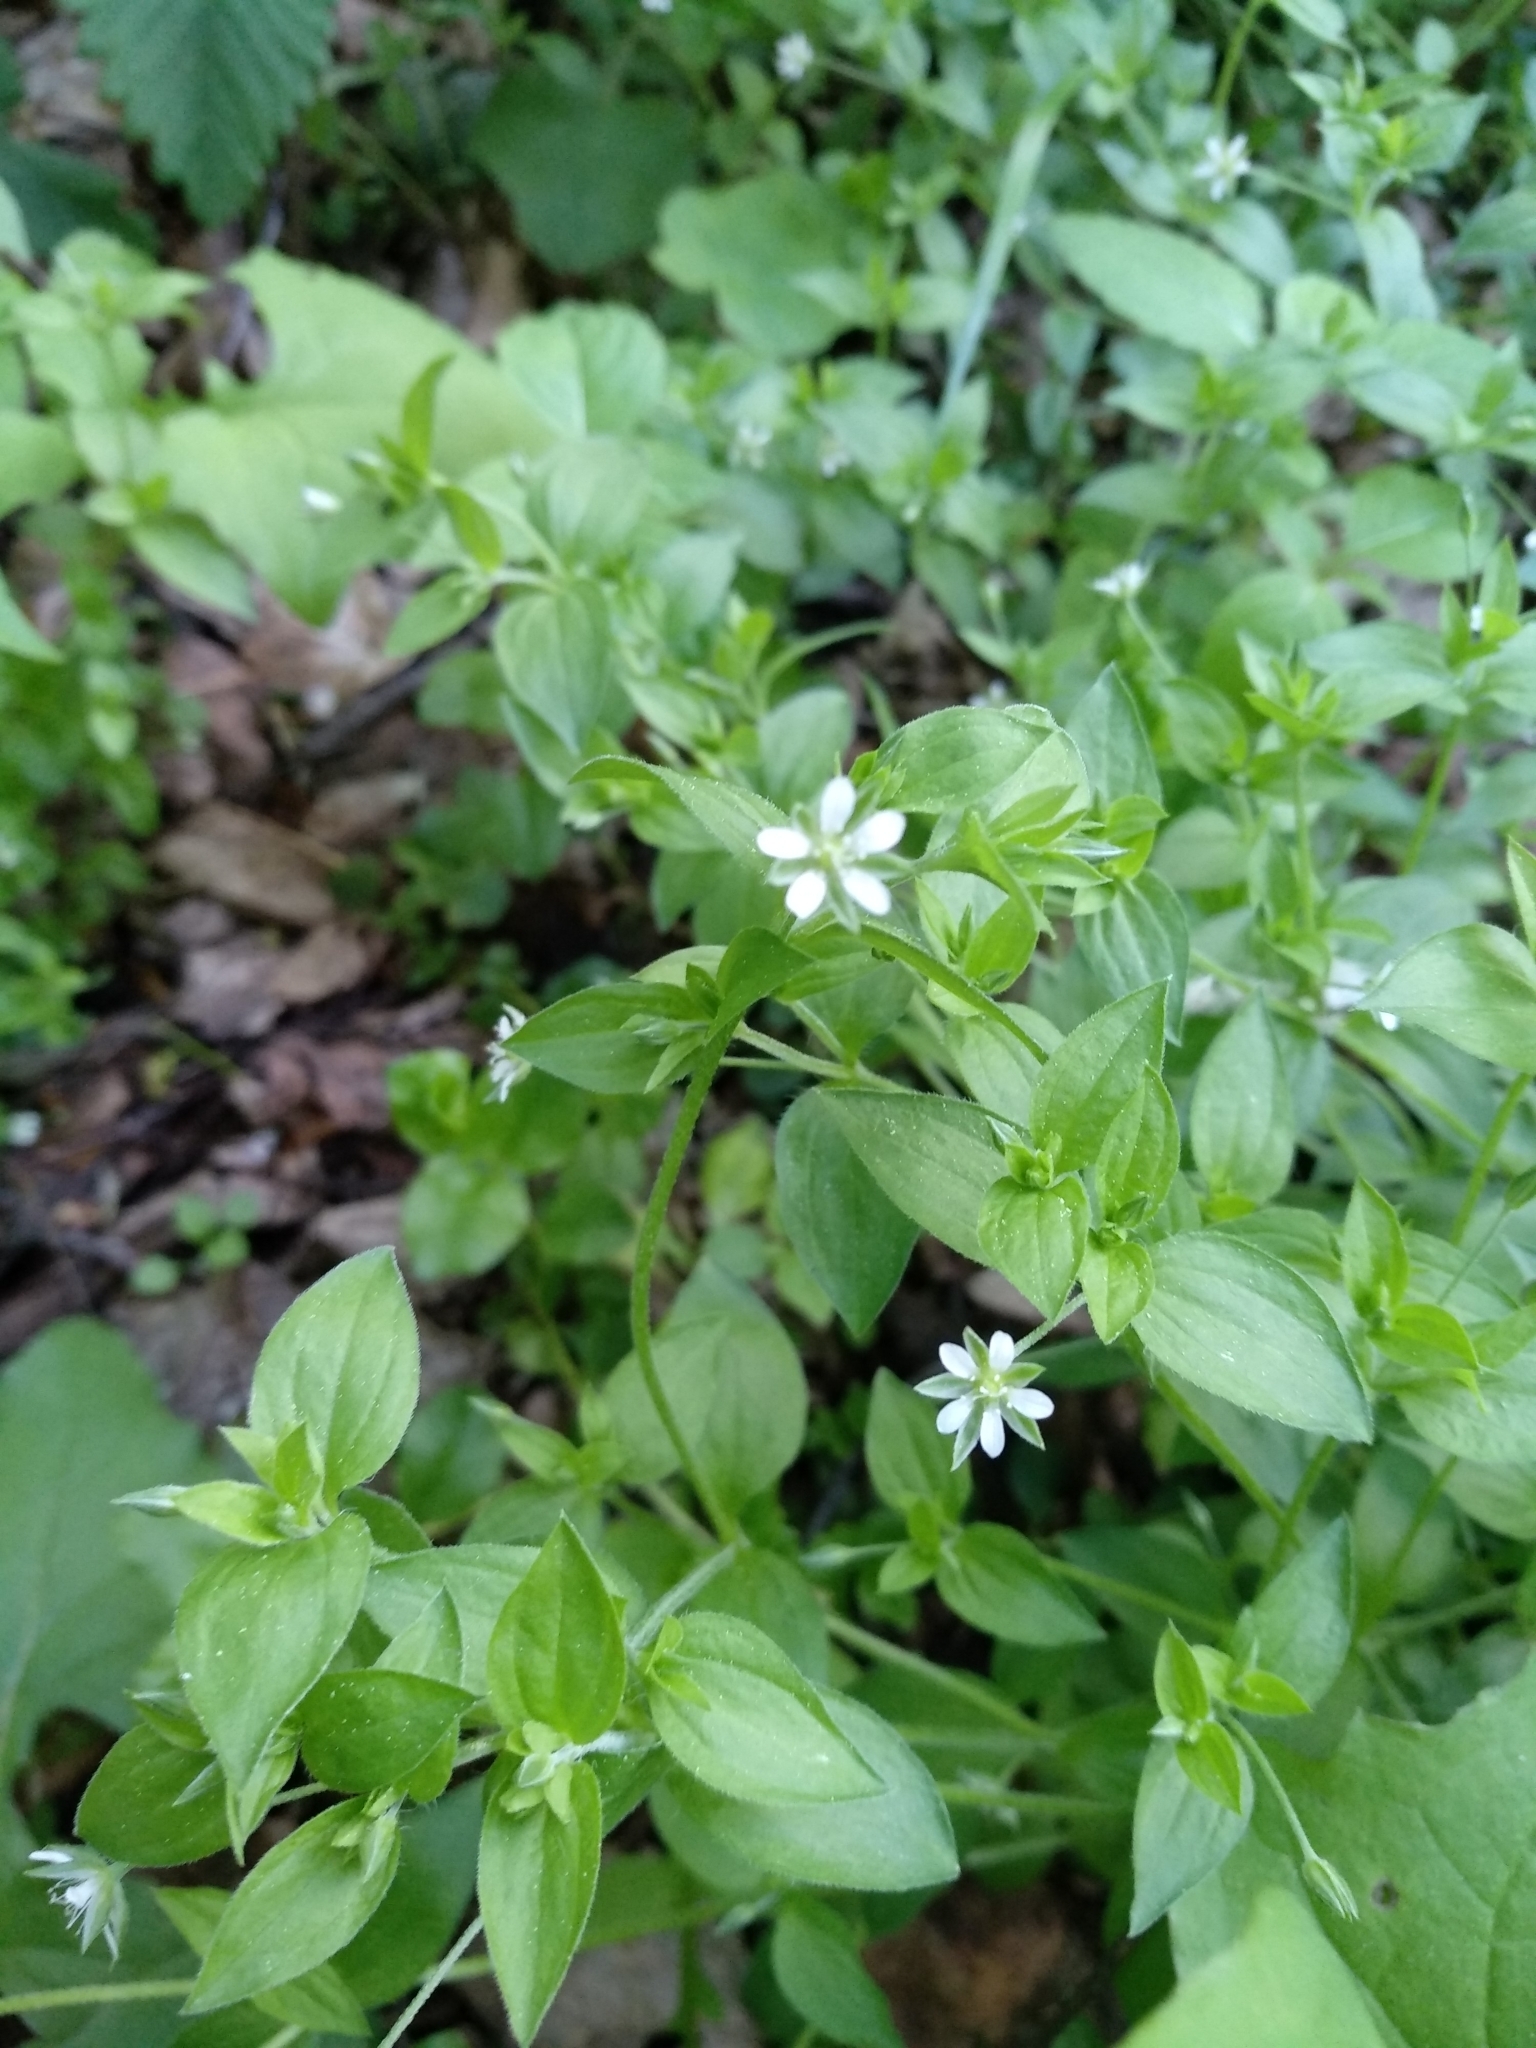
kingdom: Plantae
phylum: Tracheophyta
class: Magnoliopsida
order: Caryophyllales
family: Caryophyllaceae
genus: Moehringia
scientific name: Moehringia trinervia
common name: Three-nerved sandwort
